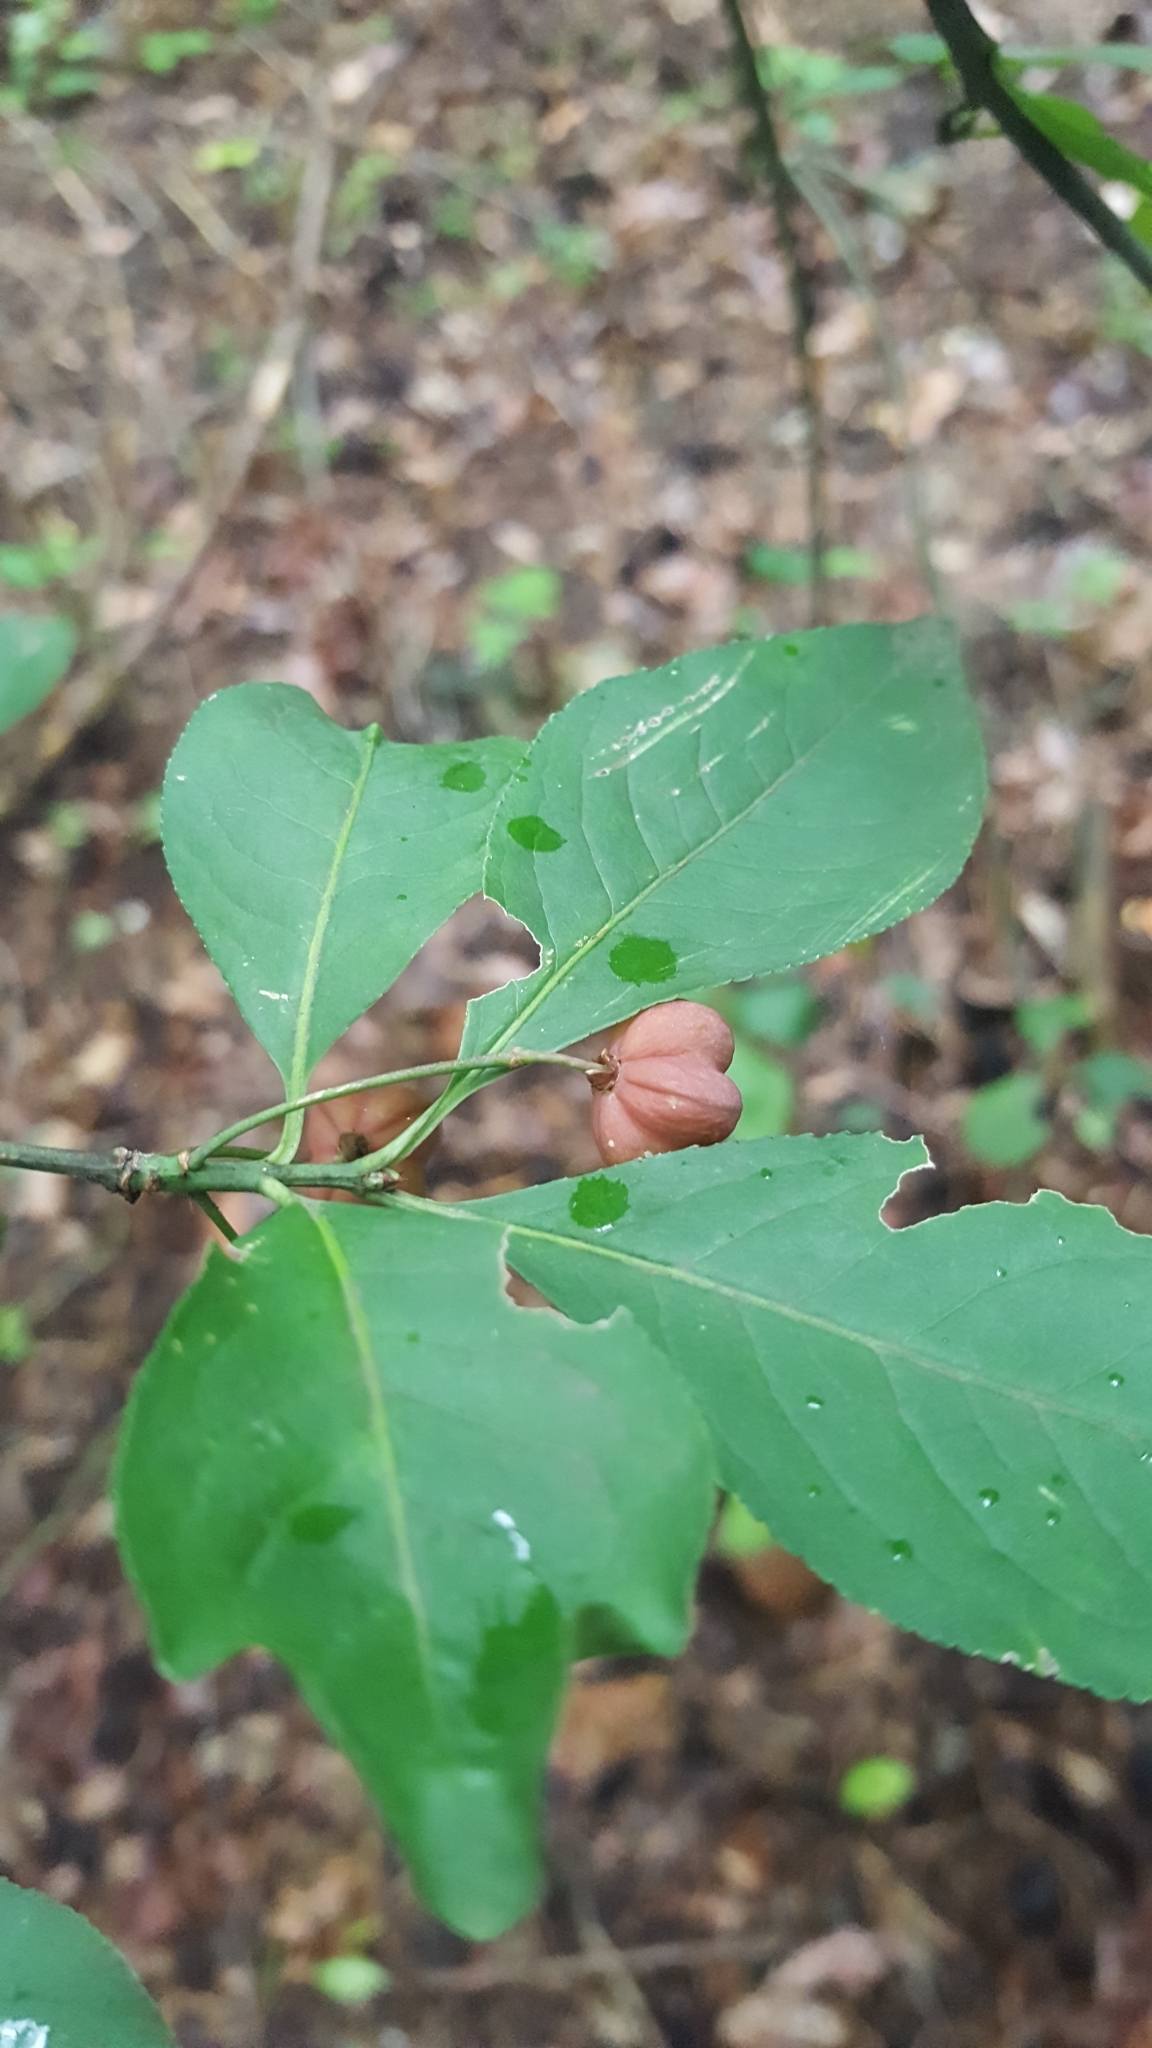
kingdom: Plantae
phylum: Tracheophyta
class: Magnoliopsida
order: Celastrales
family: Celastraceae
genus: Euonymus
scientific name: Euonymus europaeus
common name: Spindle
